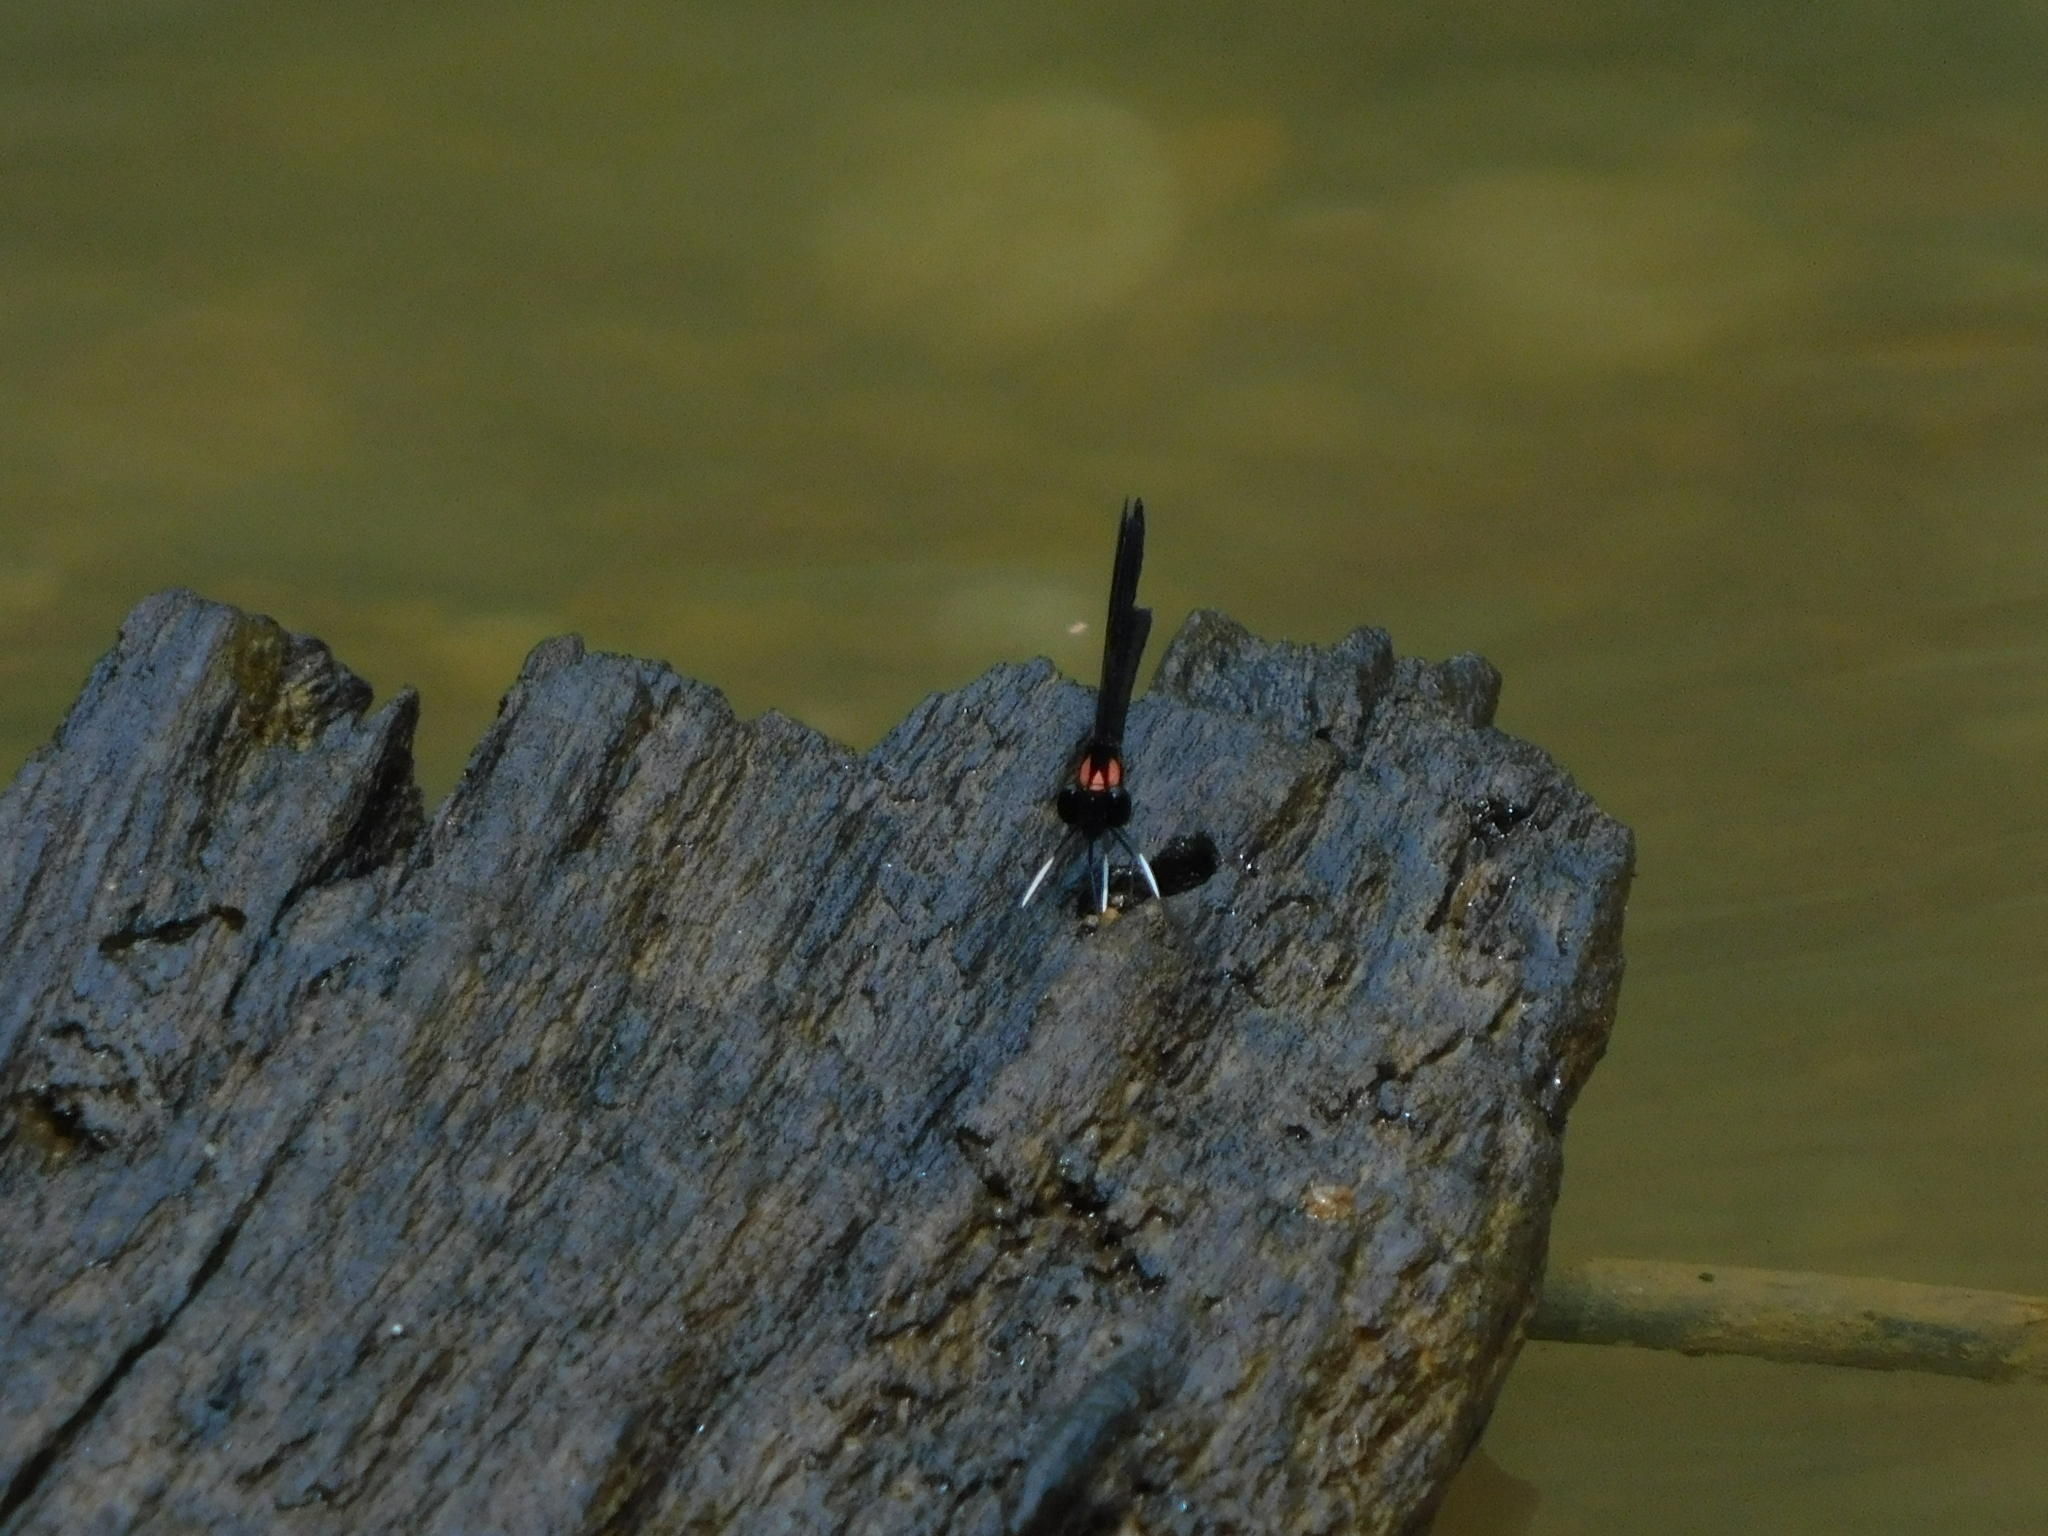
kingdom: Animalia
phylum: Arthropoda
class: Insecta
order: Odonata
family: Chlorocyphidae
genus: Heliocypha
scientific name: Heliocypha bisignata
